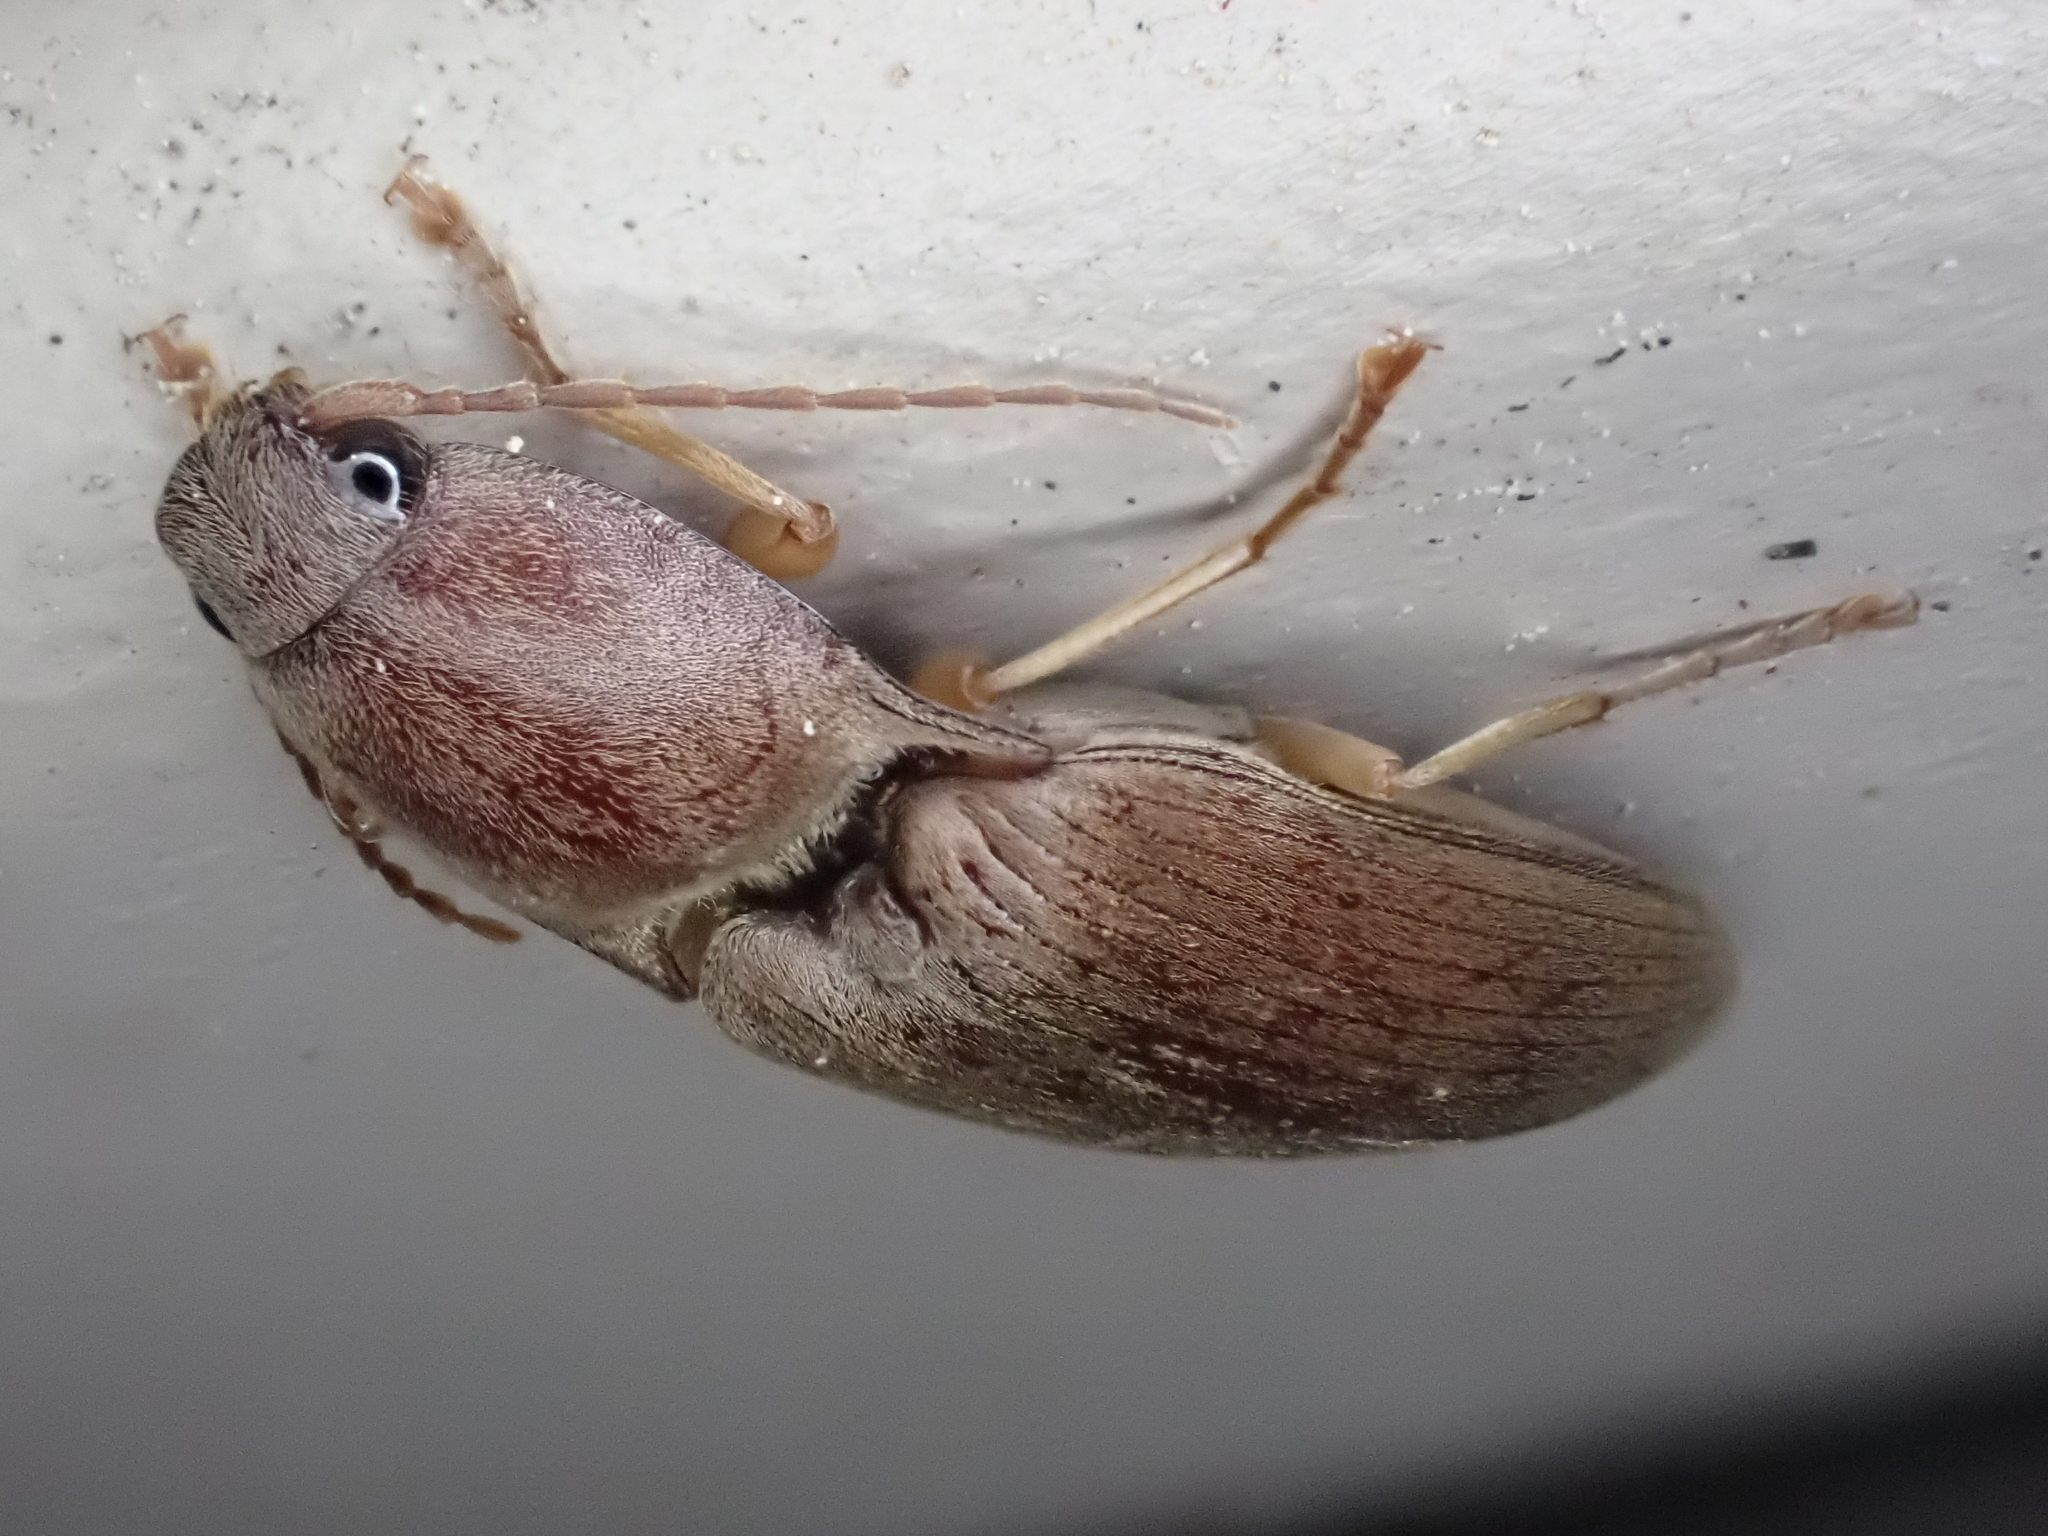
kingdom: Animalia
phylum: Arthropoda
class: Insecta
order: Coleoptera
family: Elateridae
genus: Monocrepidius
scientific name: Monocrepidius lividus
